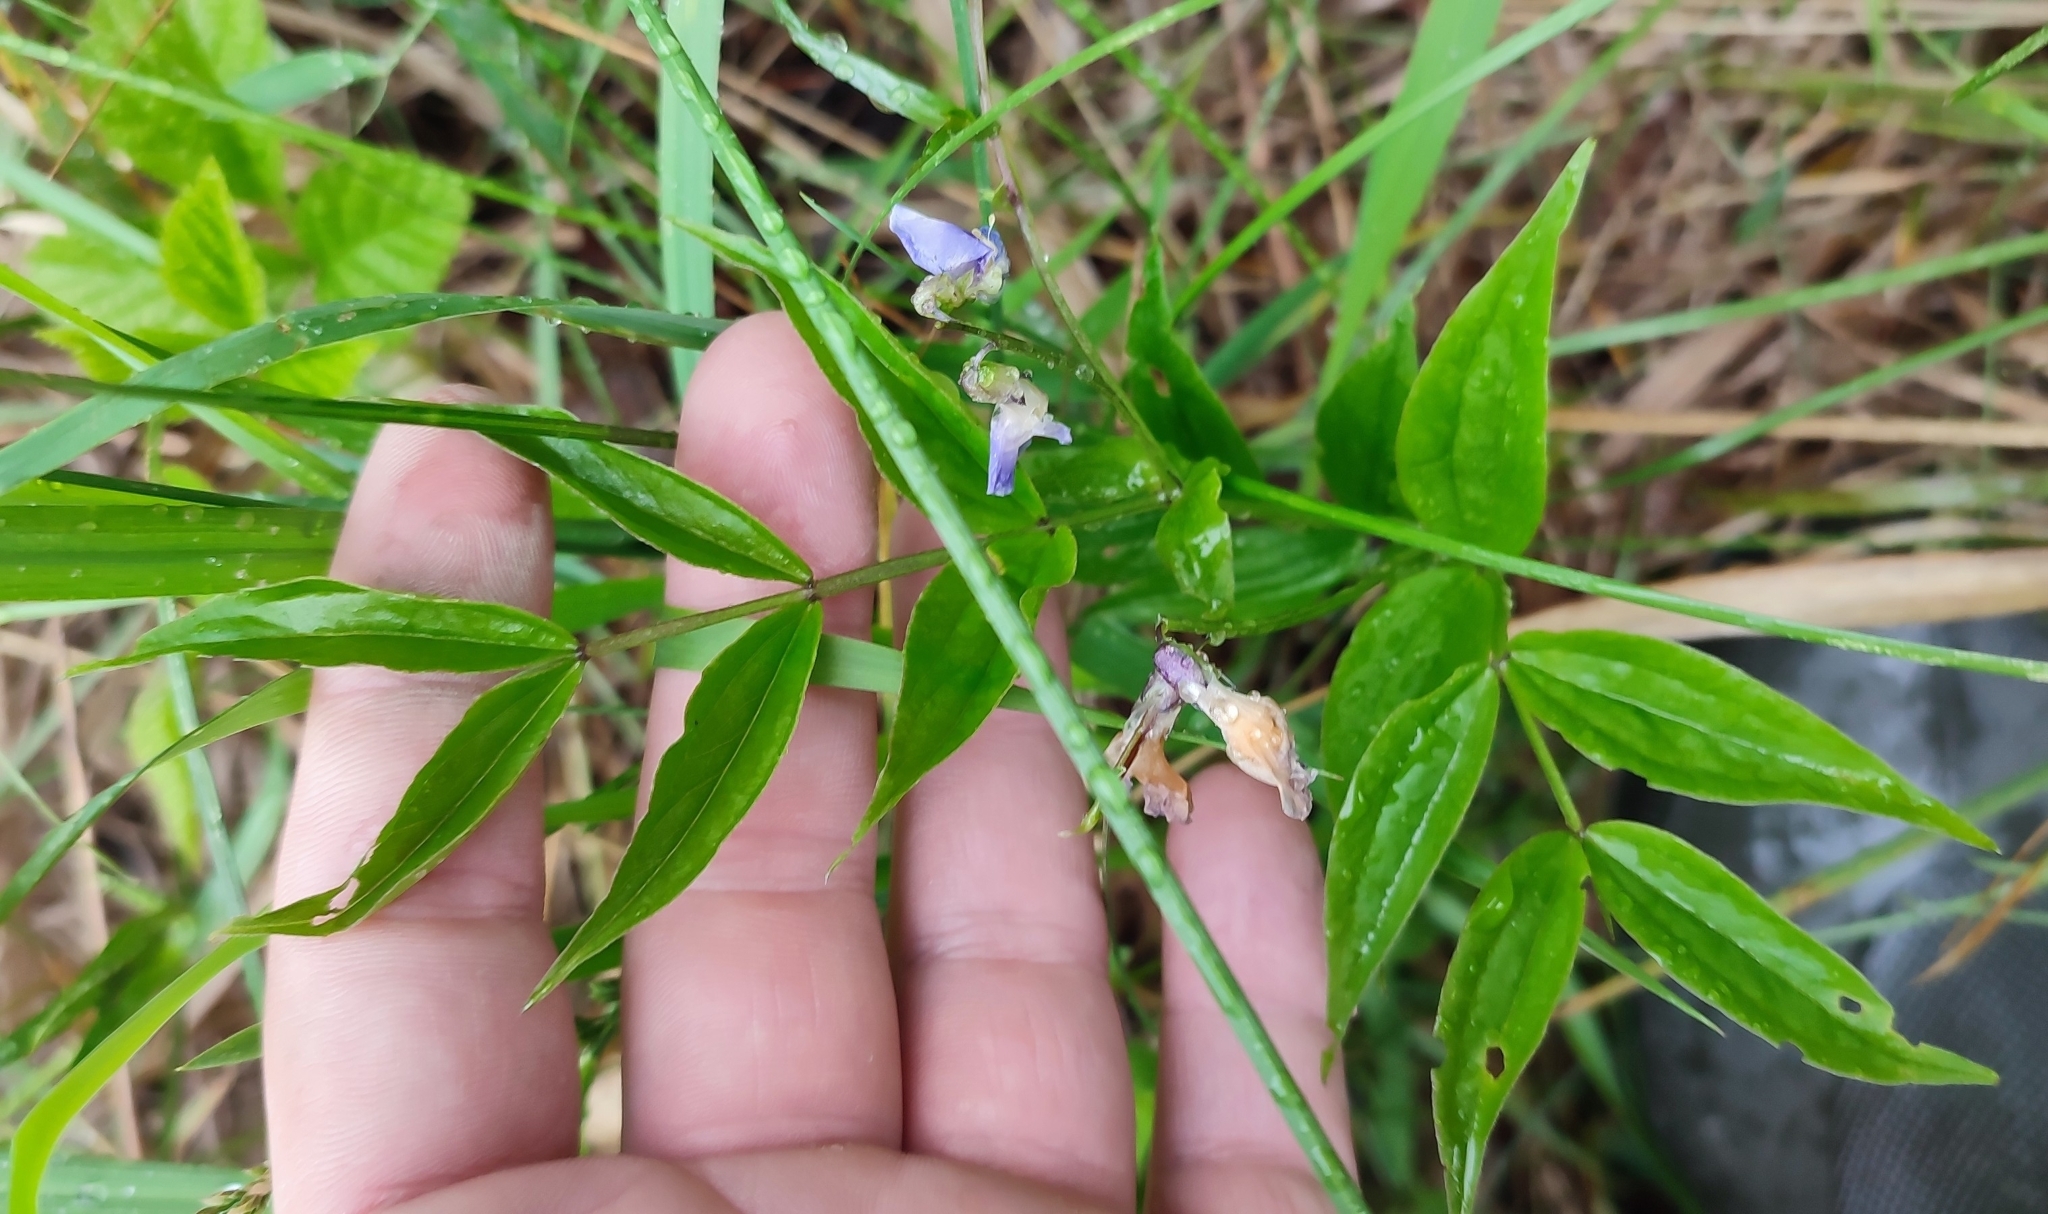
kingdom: Plantae
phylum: Tracheophyta
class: Magnoliopsida
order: Fabales
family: Fabaceae
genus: Lathyrus
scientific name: Lathyrus vernus
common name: Spring pea
